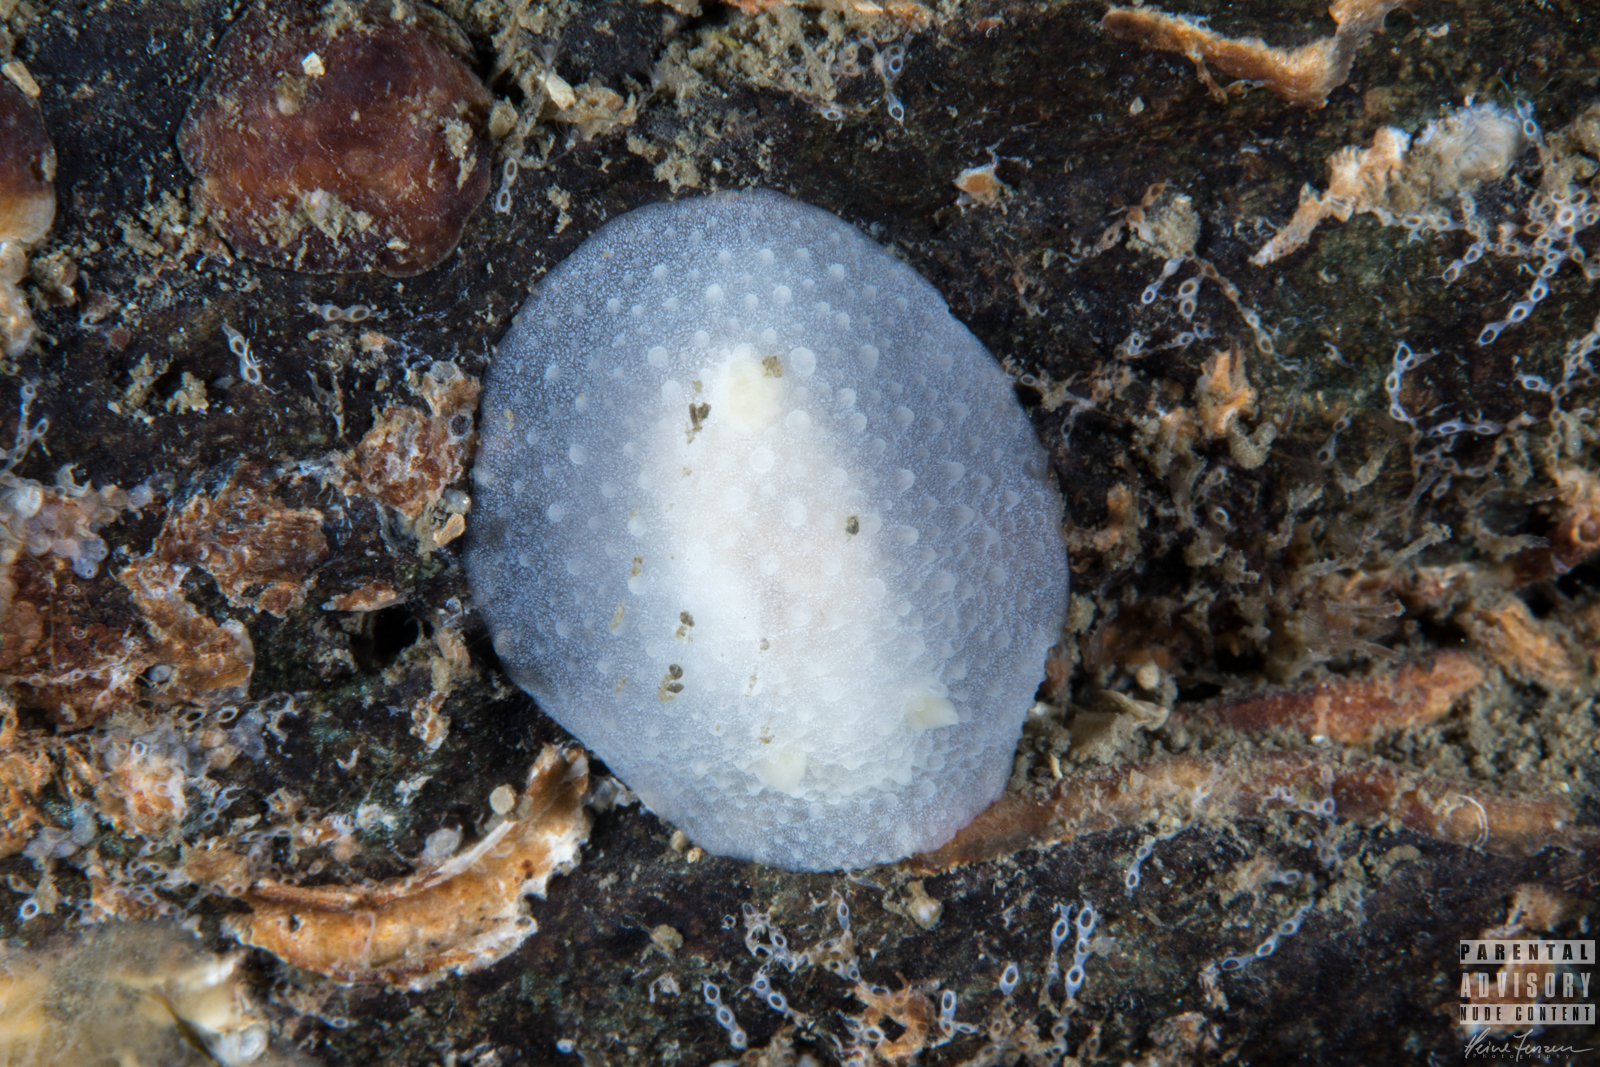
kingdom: Animalia
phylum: Mollusca
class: Gastropoda
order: Nudibranchia
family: Cadlinidae
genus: Aldisa
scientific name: Aldisa zetlandica
